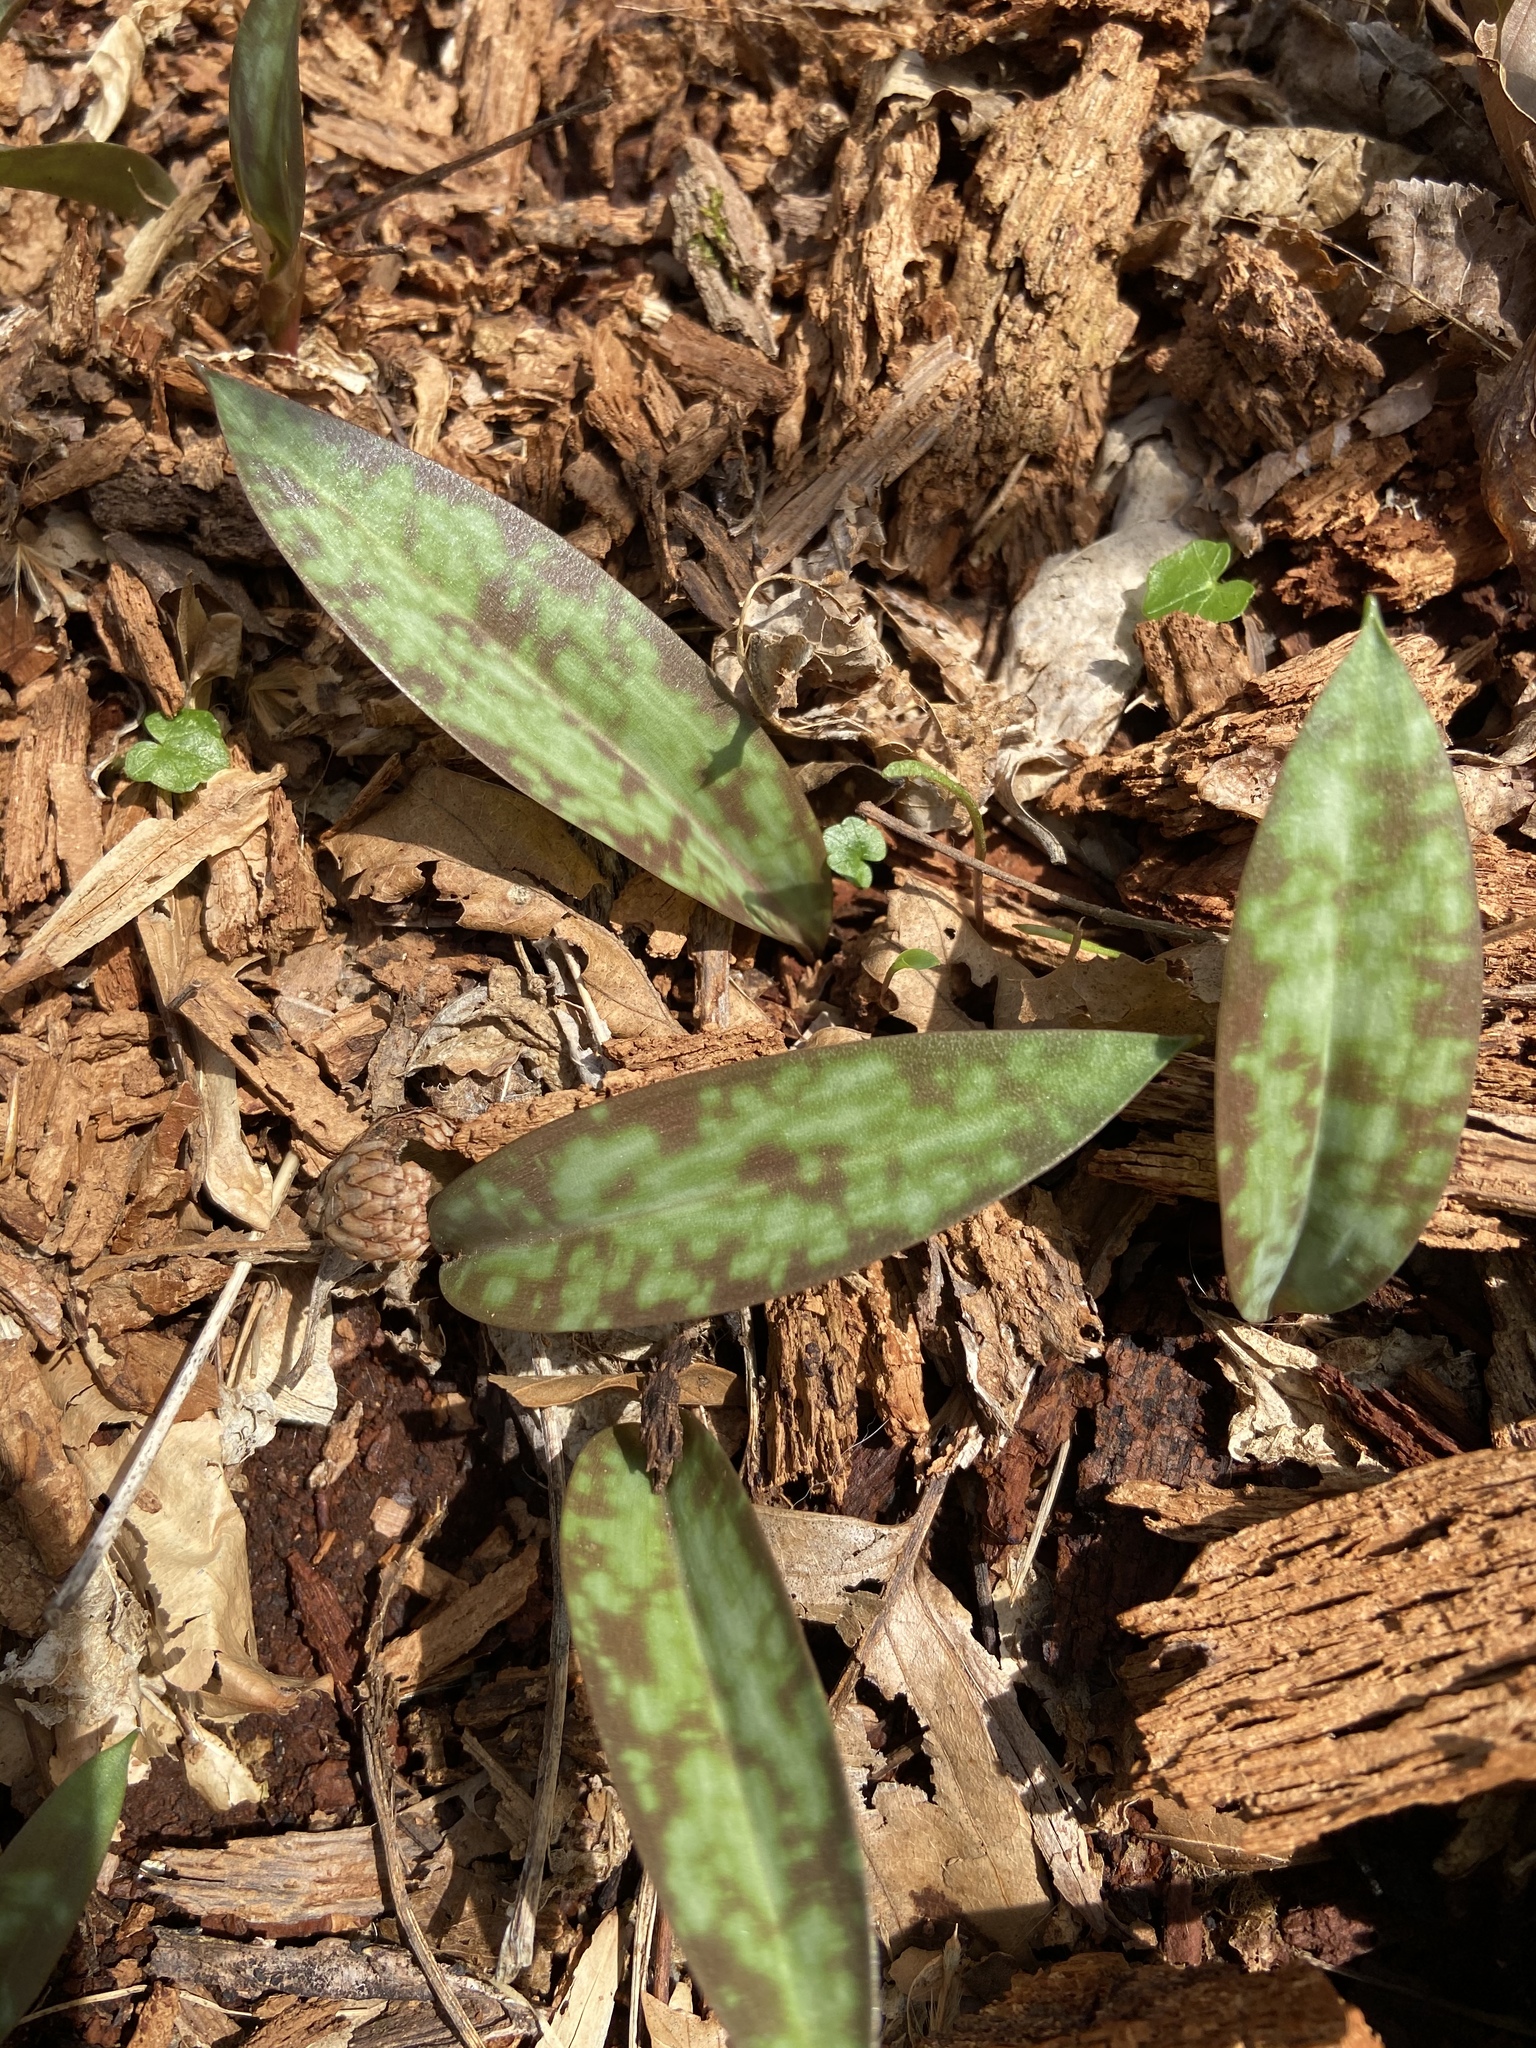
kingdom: Plantae
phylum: Tracheophyta
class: Liliopsida
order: Liliales
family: Liliaceae
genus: Erythronium
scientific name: Erythronium americanum
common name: Yellow adder's-tongue
